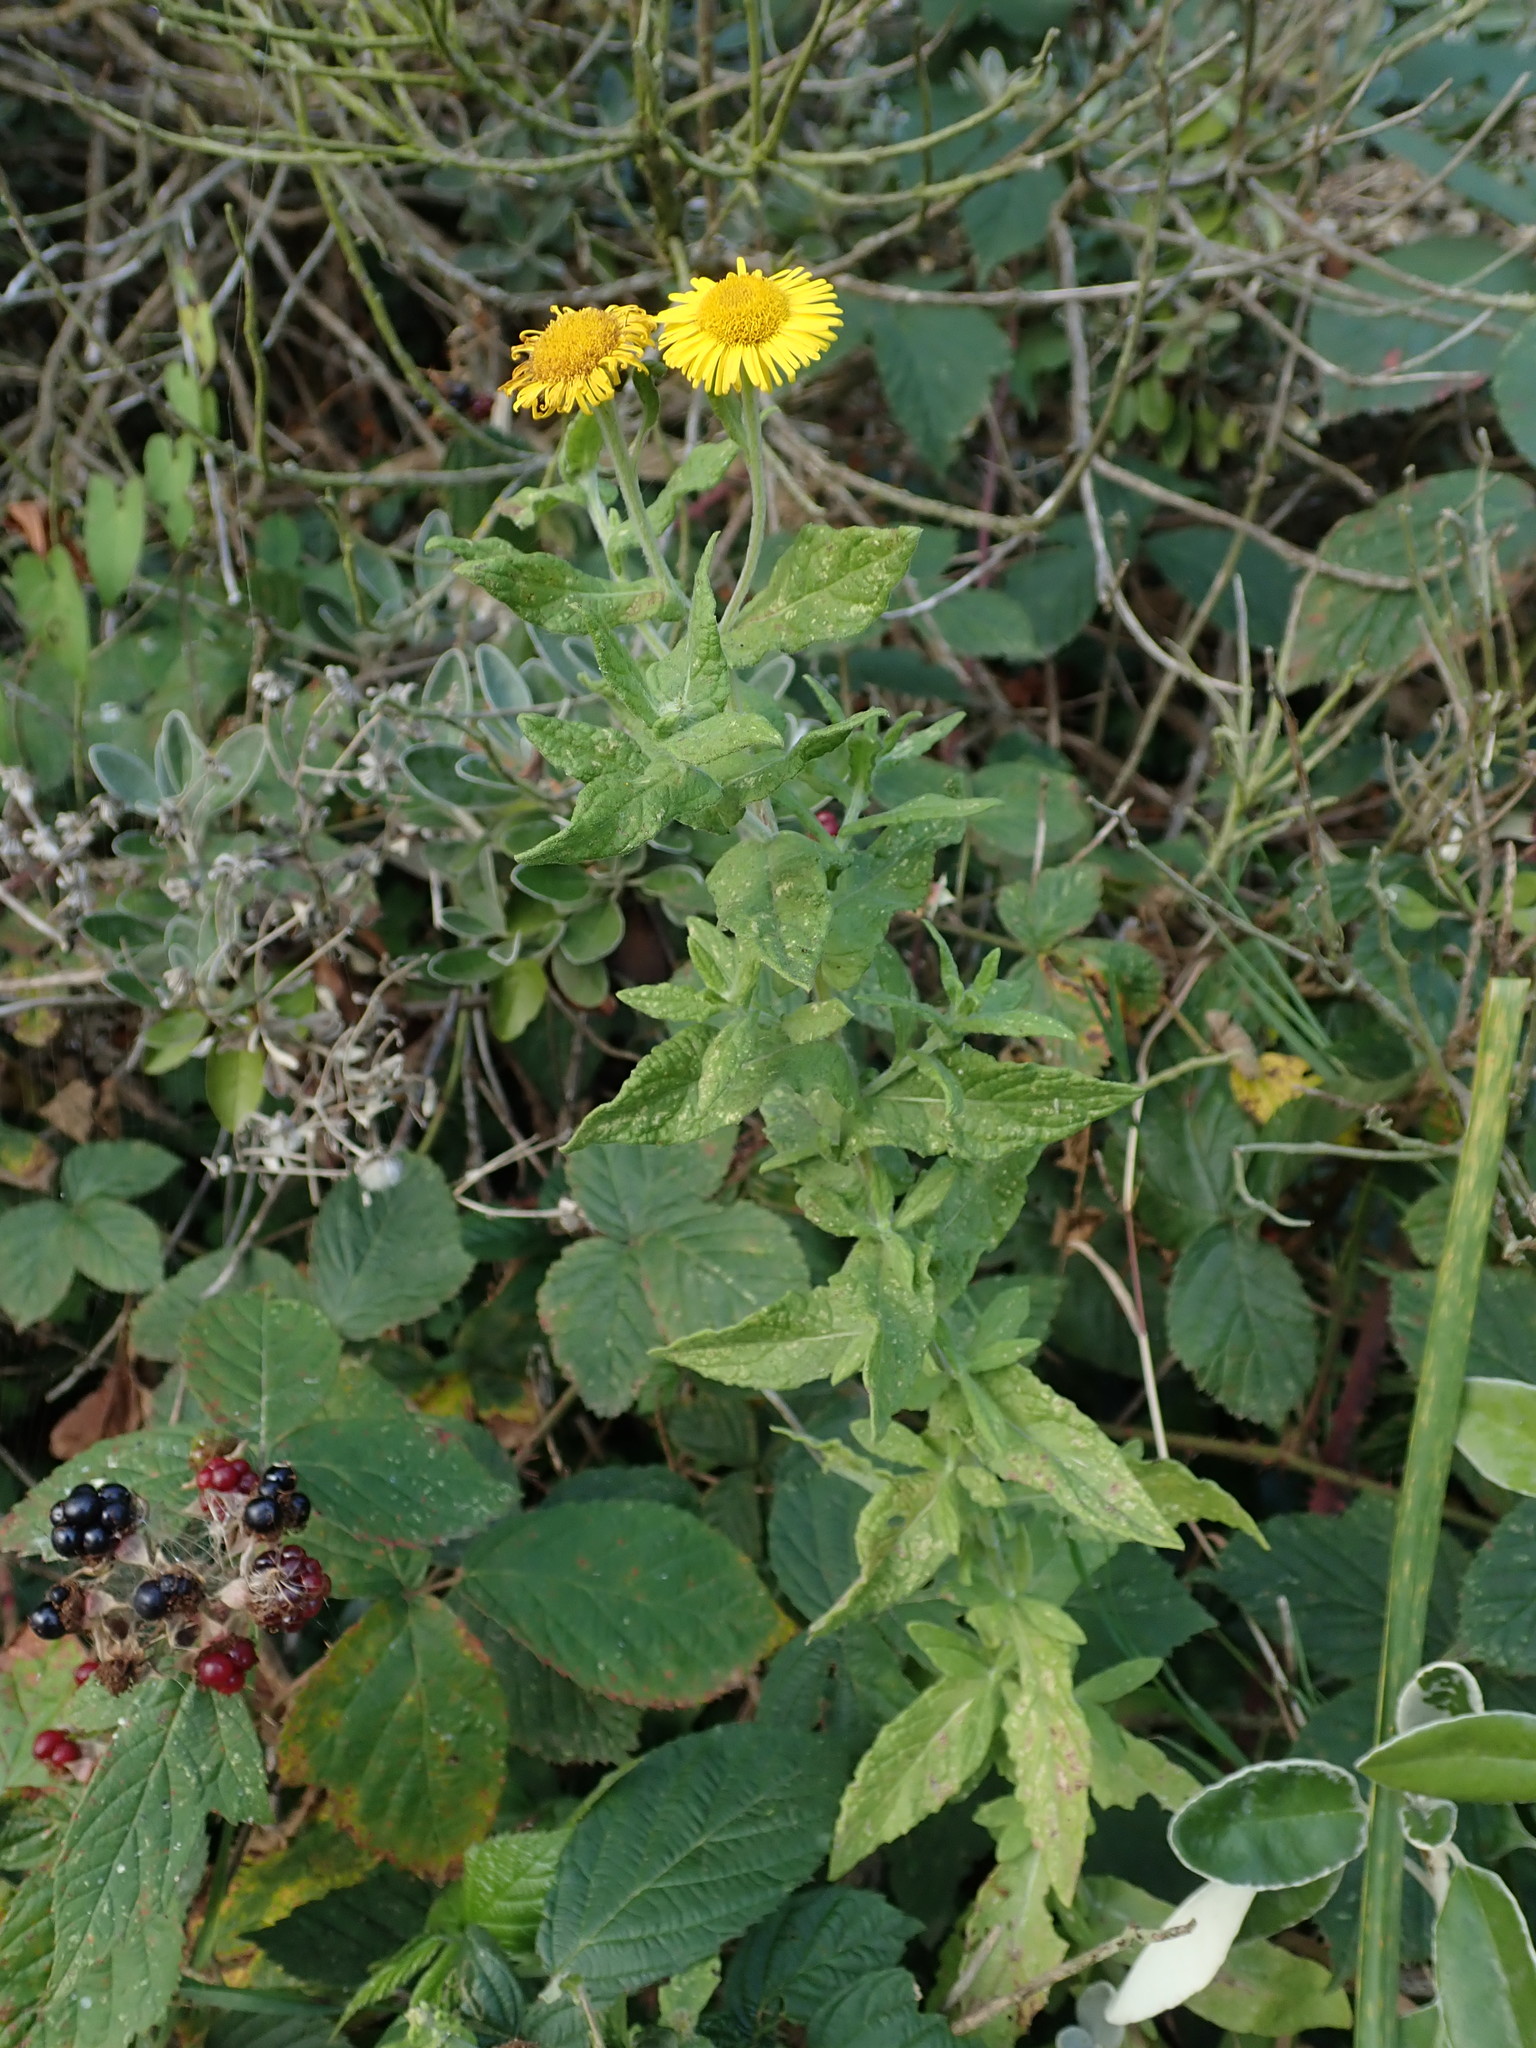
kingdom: Plantae
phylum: Tracheophyta
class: Magnoliopsida
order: Asterales
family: Asteraceae
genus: Pulicaria
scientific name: Pulicaria dysenterica
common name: Common fleabane
